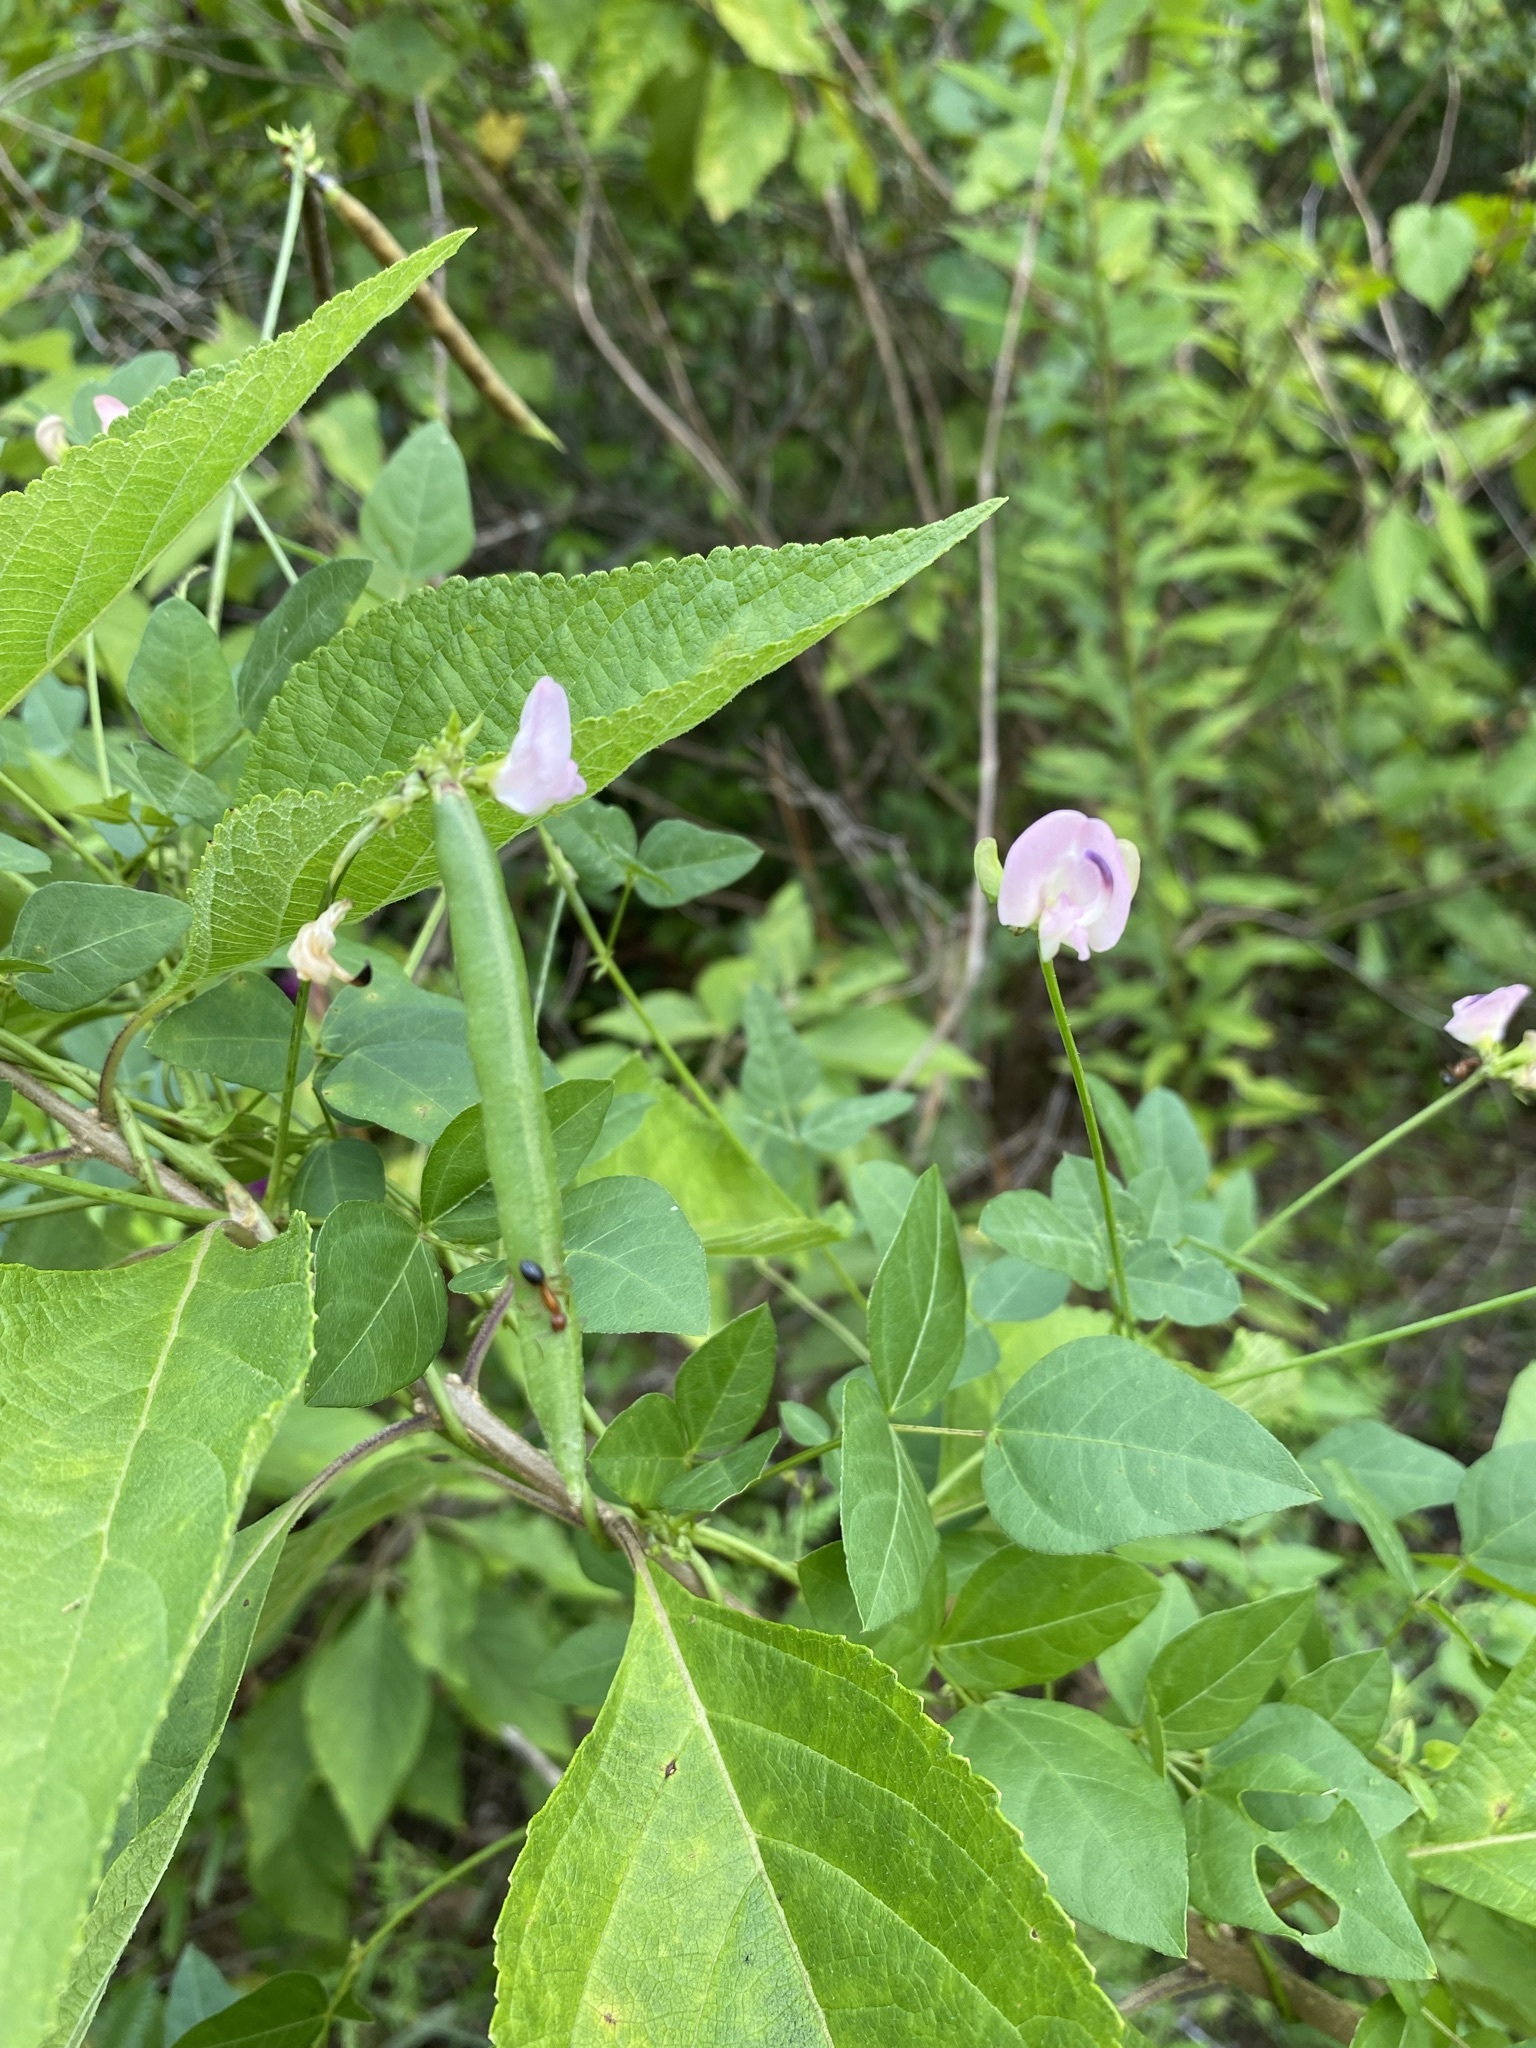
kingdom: Plantae
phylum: Tracheophyta
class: Magnoliopsida
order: Fabales
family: Fabaceae
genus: Strophostyles
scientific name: Strophostyles helvola
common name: Trailing wild bean
